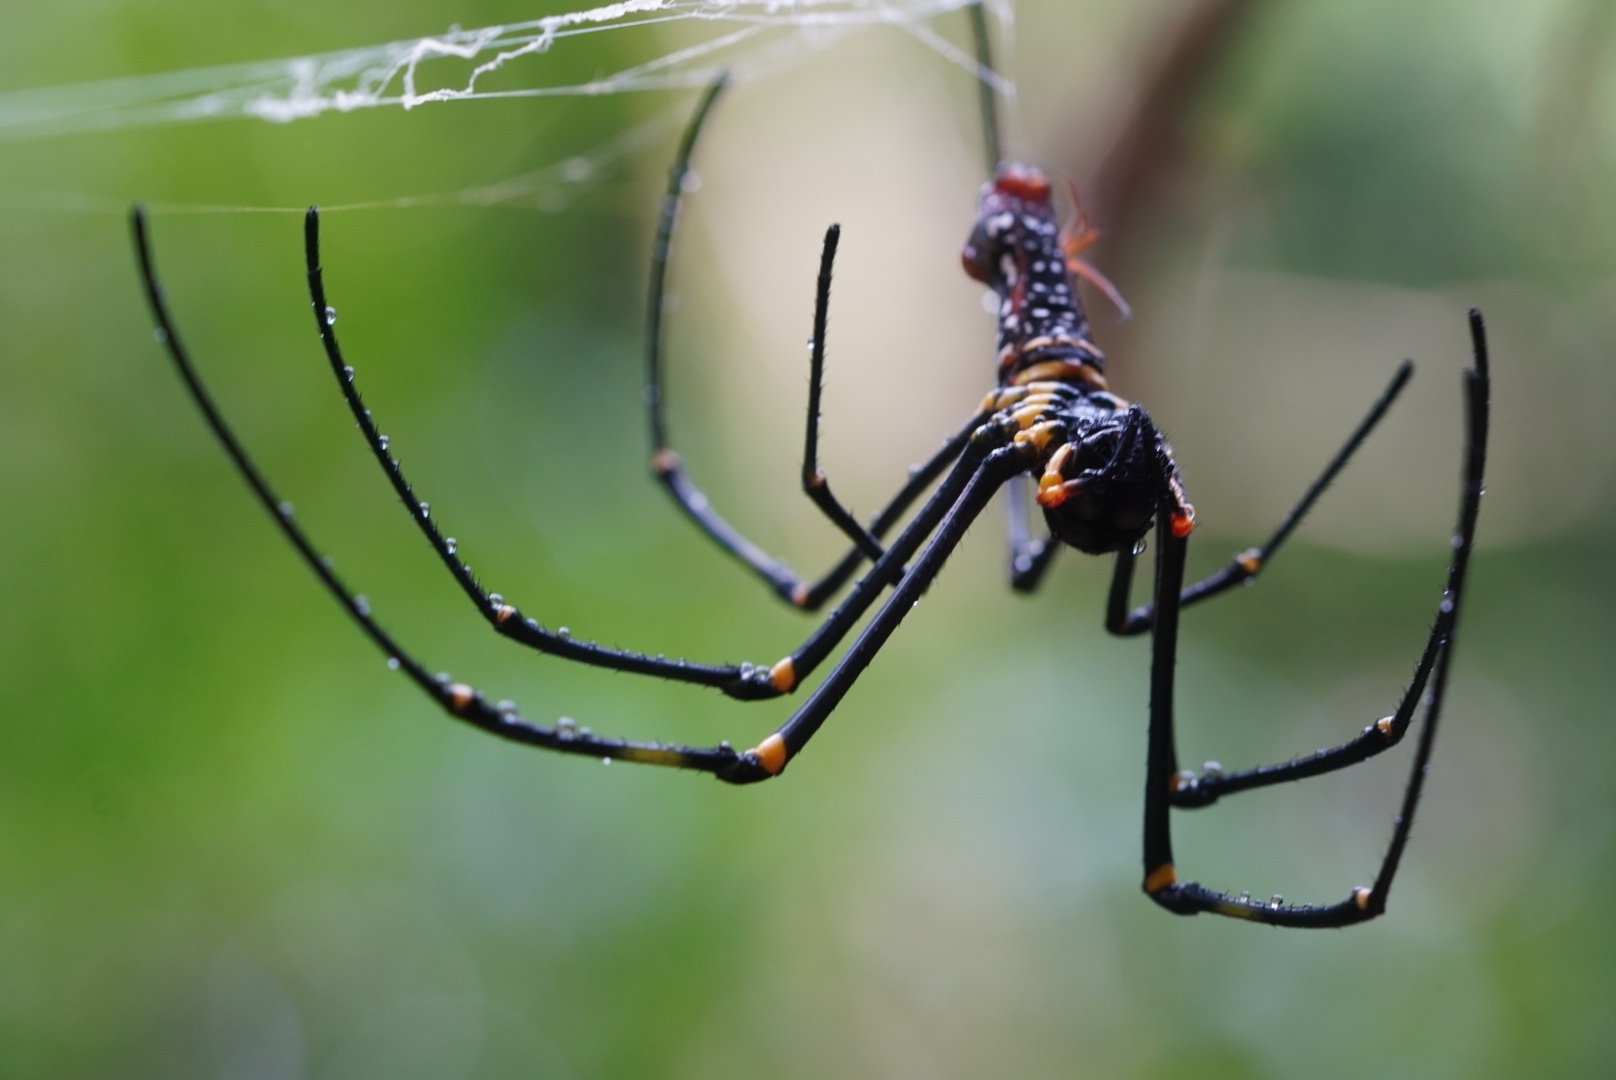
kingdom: Animalia
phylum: Arthropoda
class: Arachnida
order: Araneae
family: Araneidae
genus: Nephila
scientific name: Nephila pilipes
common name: Giant golden orb weaver
